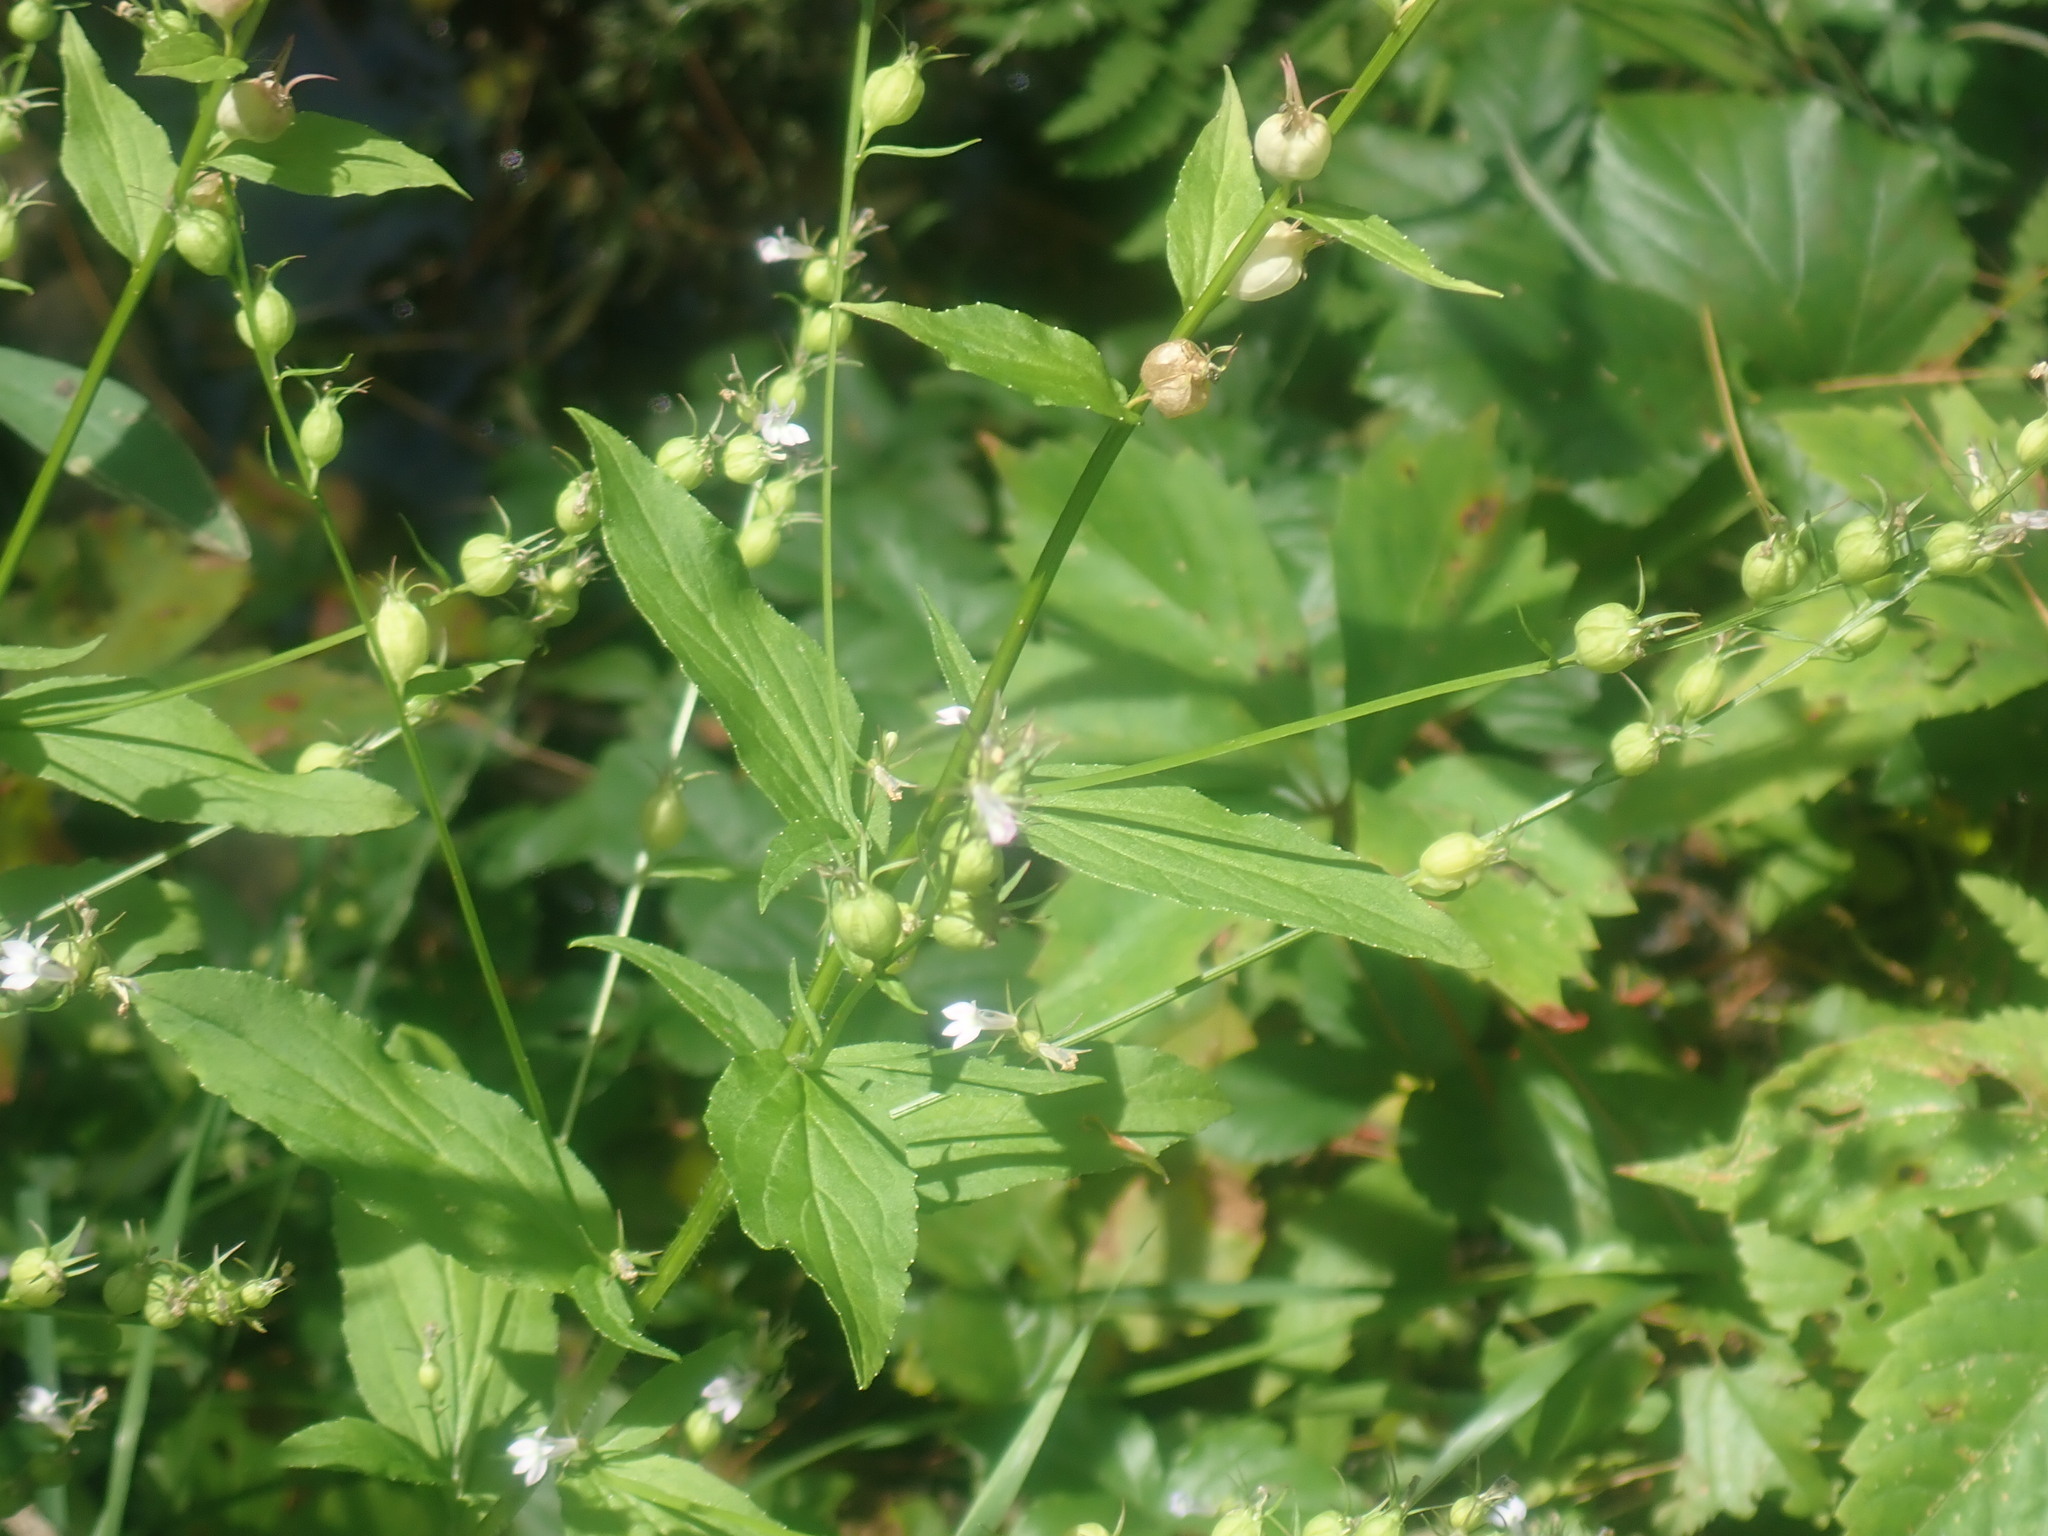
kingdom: Plantae
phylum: Tracheophyta
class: Magnoliopsida
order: Asterales
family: Campanulaceae
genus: Lobelia
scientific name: Lobelia inflata
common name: Indian tobacco
